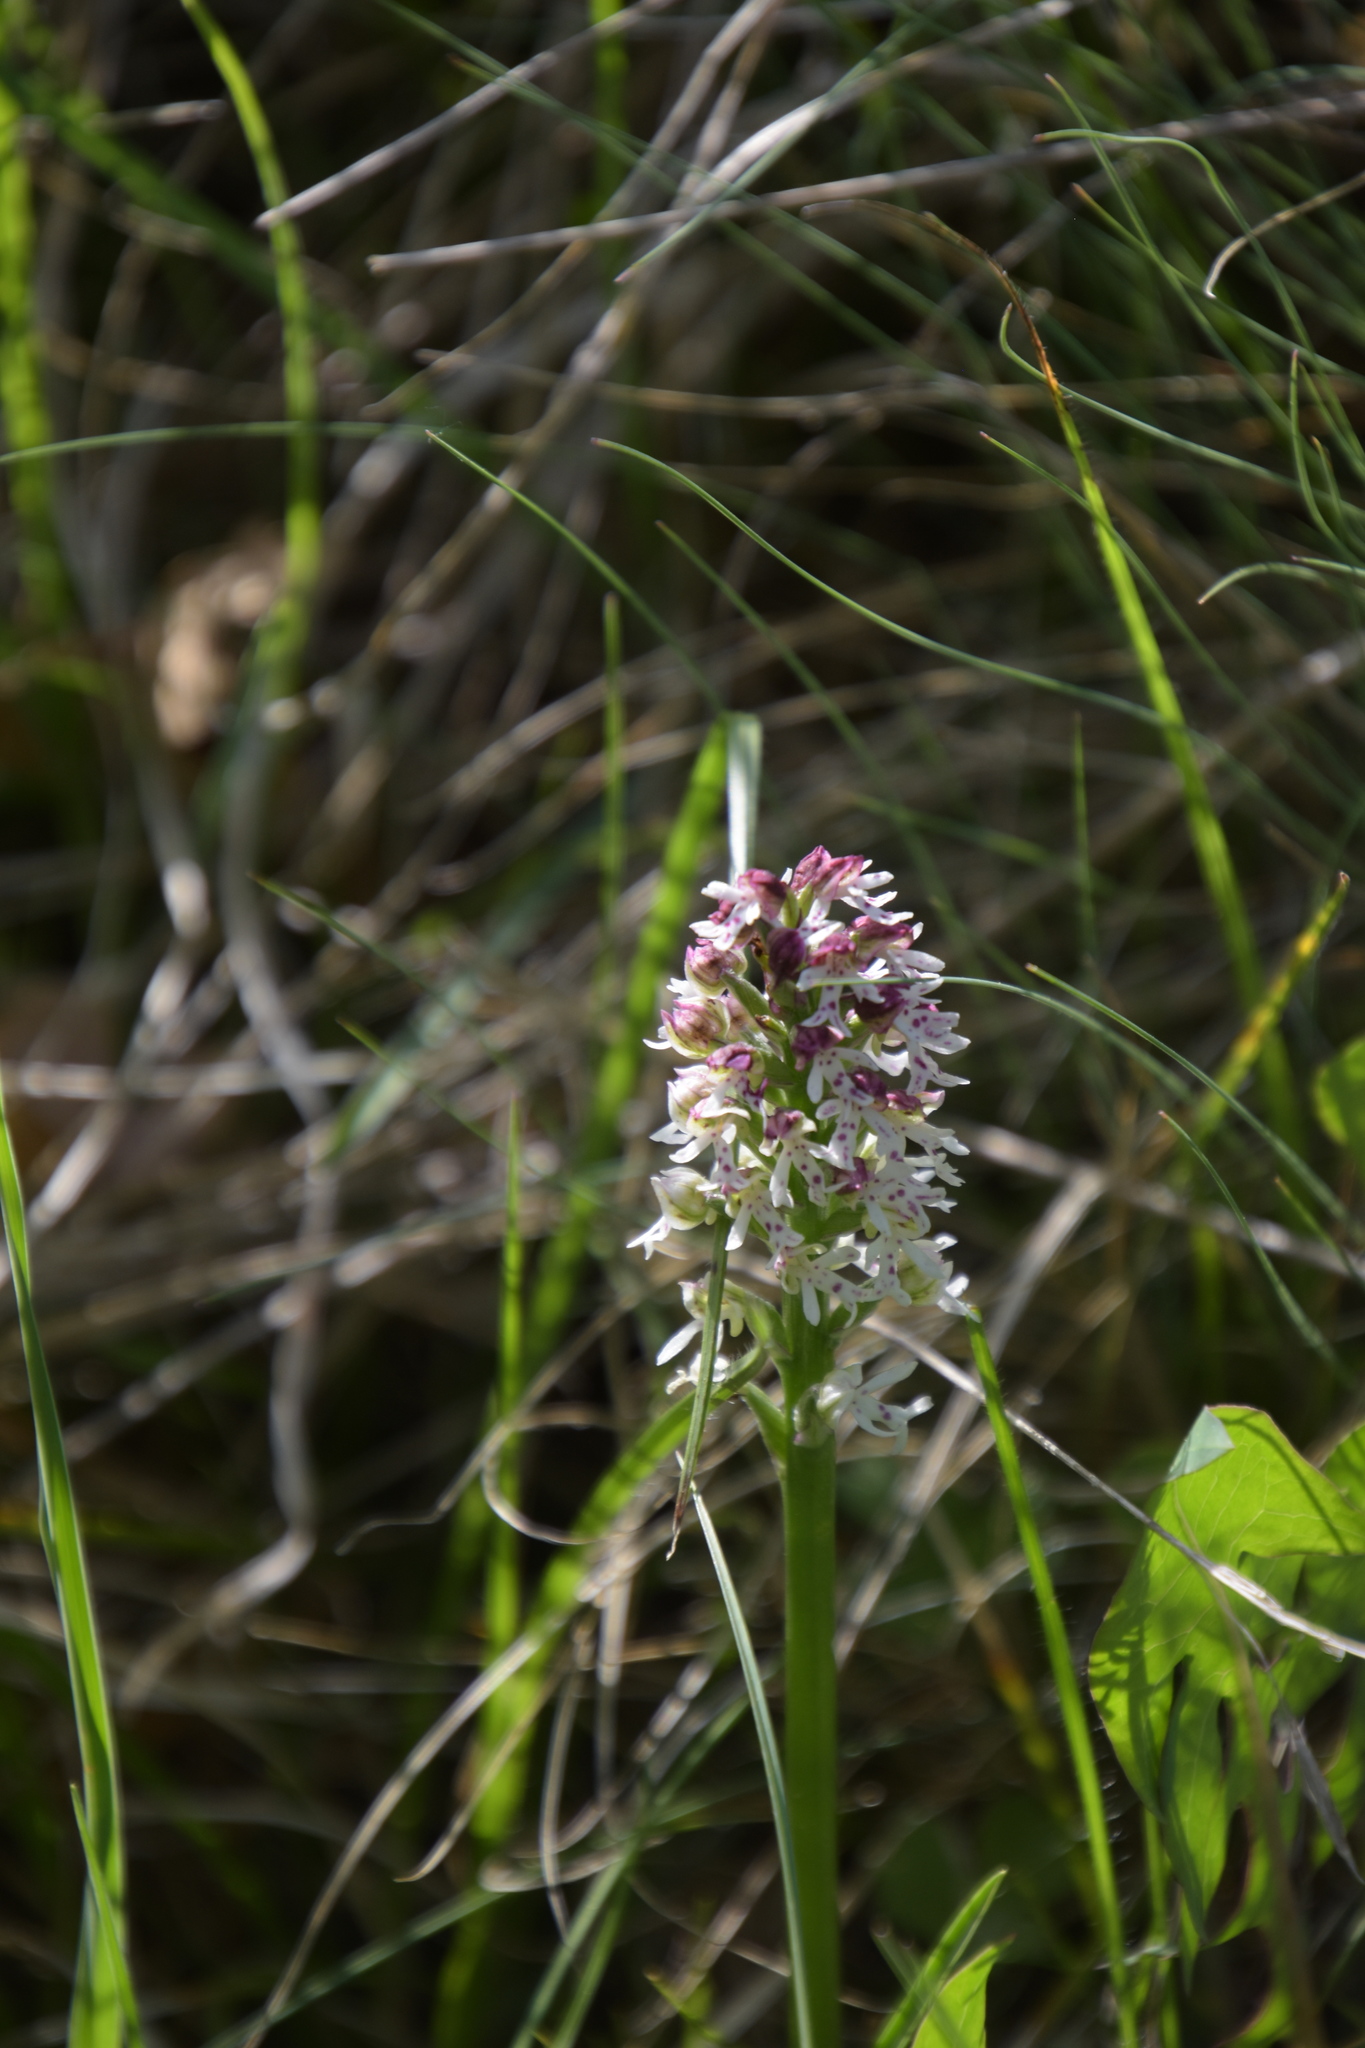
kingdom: Plantae
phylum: Tracheophyta
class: Liliopsida
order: Asparagales
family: Orchidaceae
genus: Neotinea
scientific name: Neotinea ustulata
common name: Burnt orchid
